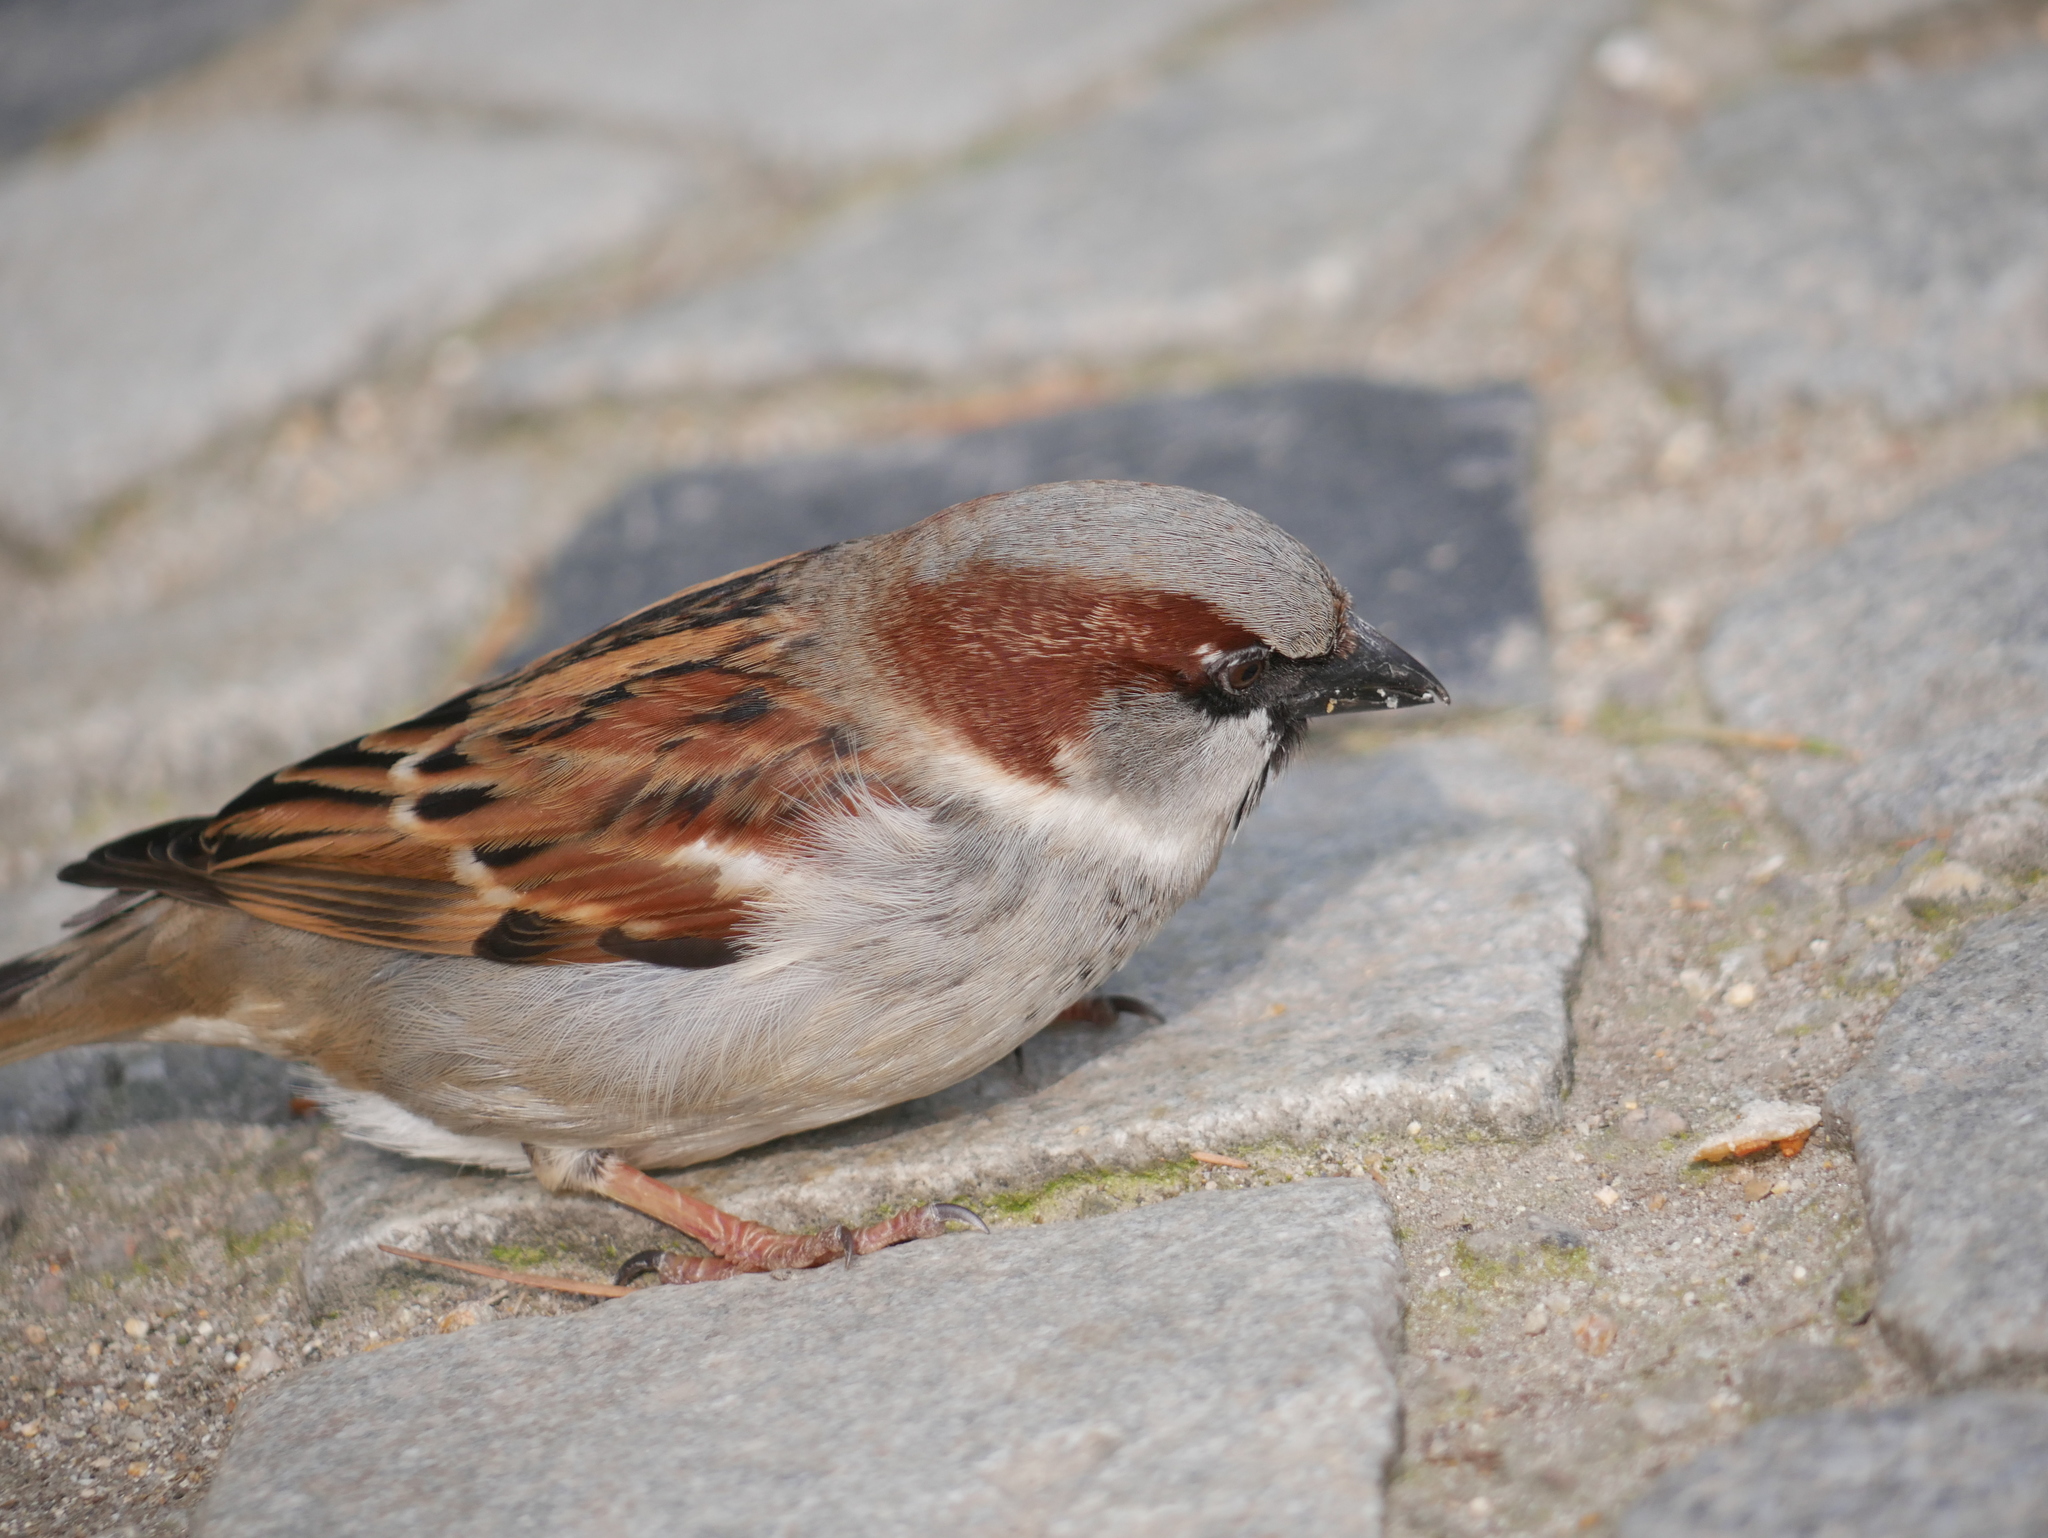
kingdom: Animalia
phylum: Chordata
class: Aves
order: Passeriformes
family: Passeridae
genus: Passer
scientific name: Passer domesticus
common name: House sparrow
